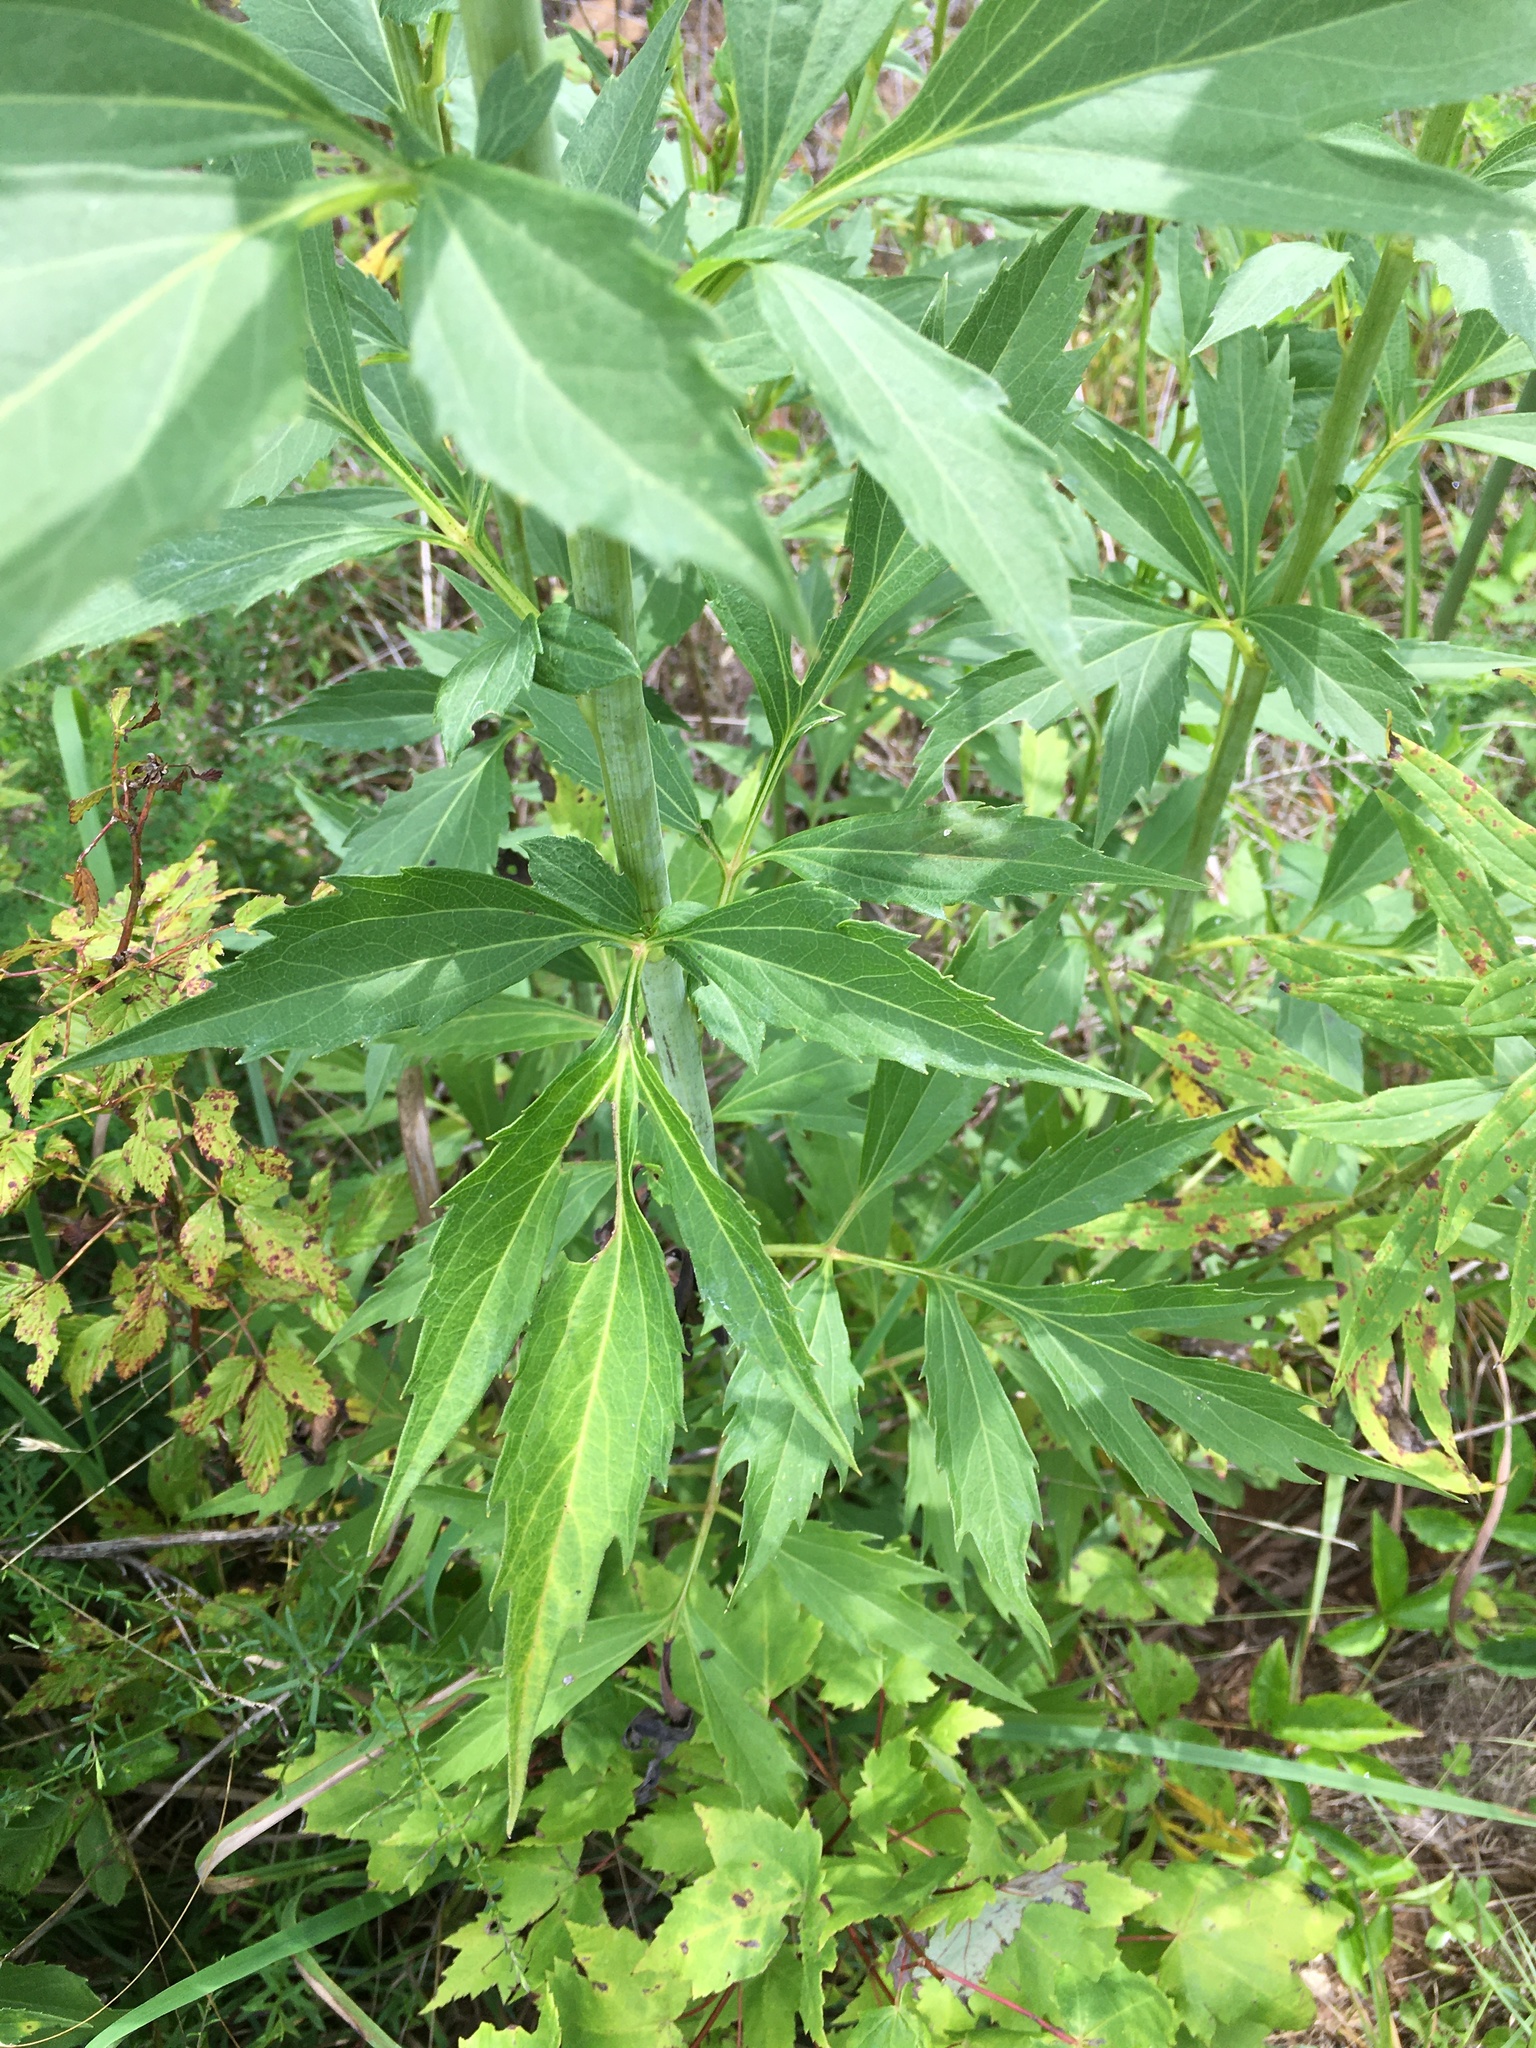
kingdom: Plantae
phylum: Tracheophyta
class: Magnoliopsida
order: Asterales
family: Asteraceae
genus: Rudbeckia
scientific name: Rudbeckia laciniata
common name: Coneflower
